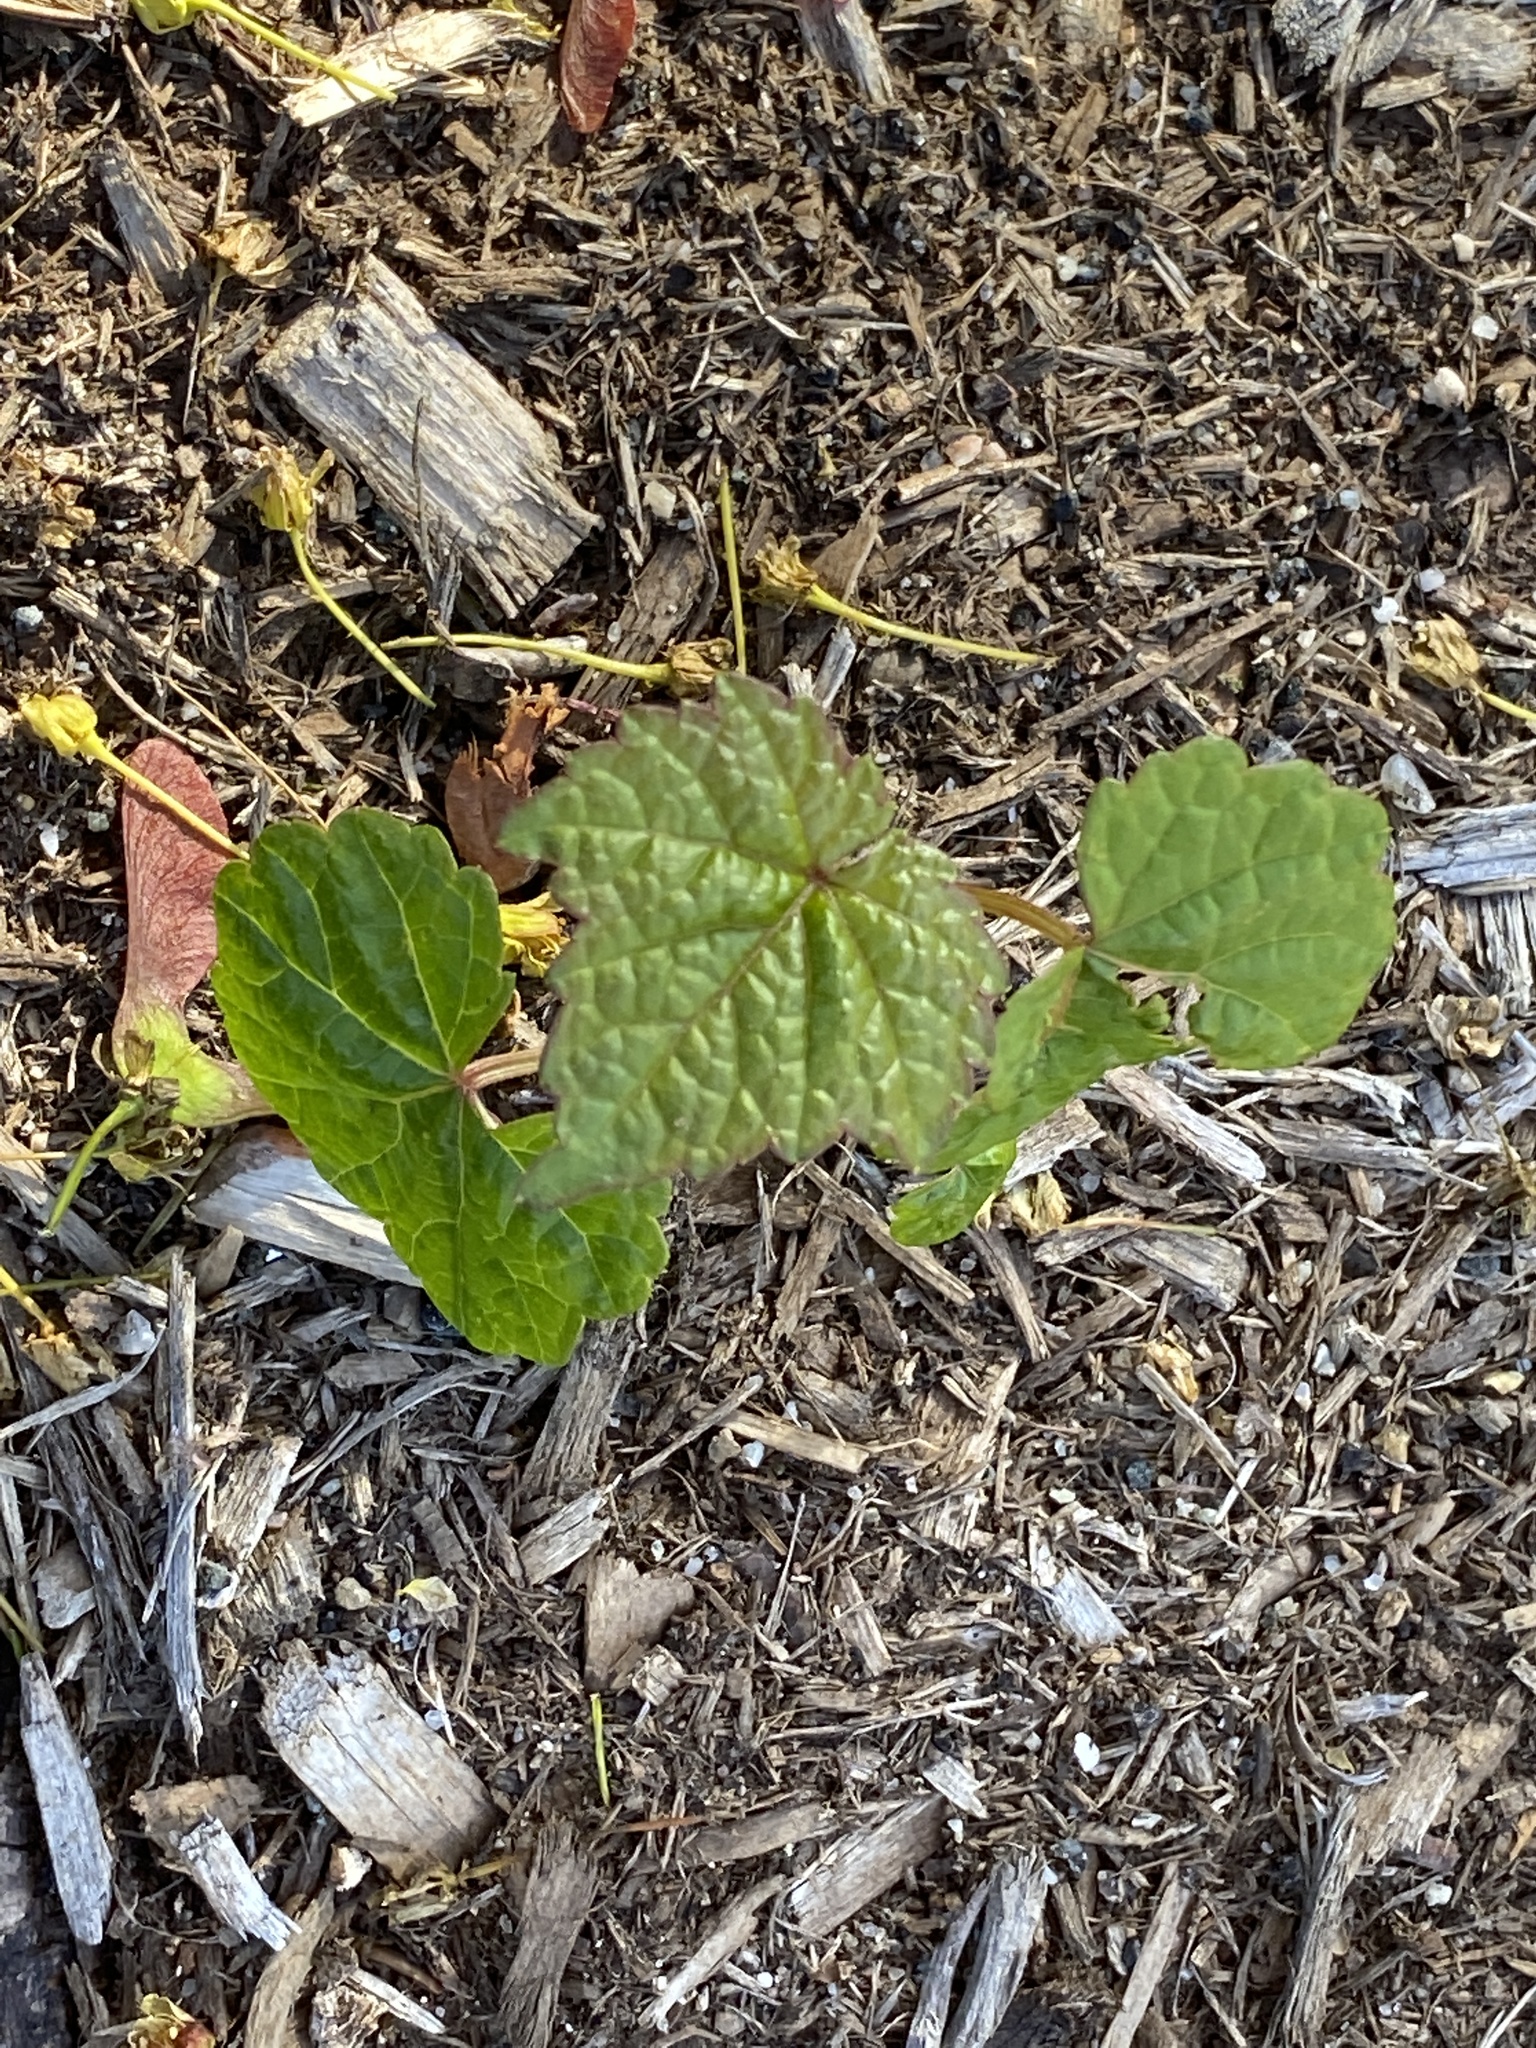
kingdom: Plantae
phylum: Tracheophyta
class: Magnoliopsida
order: Vitales
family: Vitaceae
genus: Ampelopsis
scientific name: Ampelopsis glandulosa
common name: Amur peppervine
